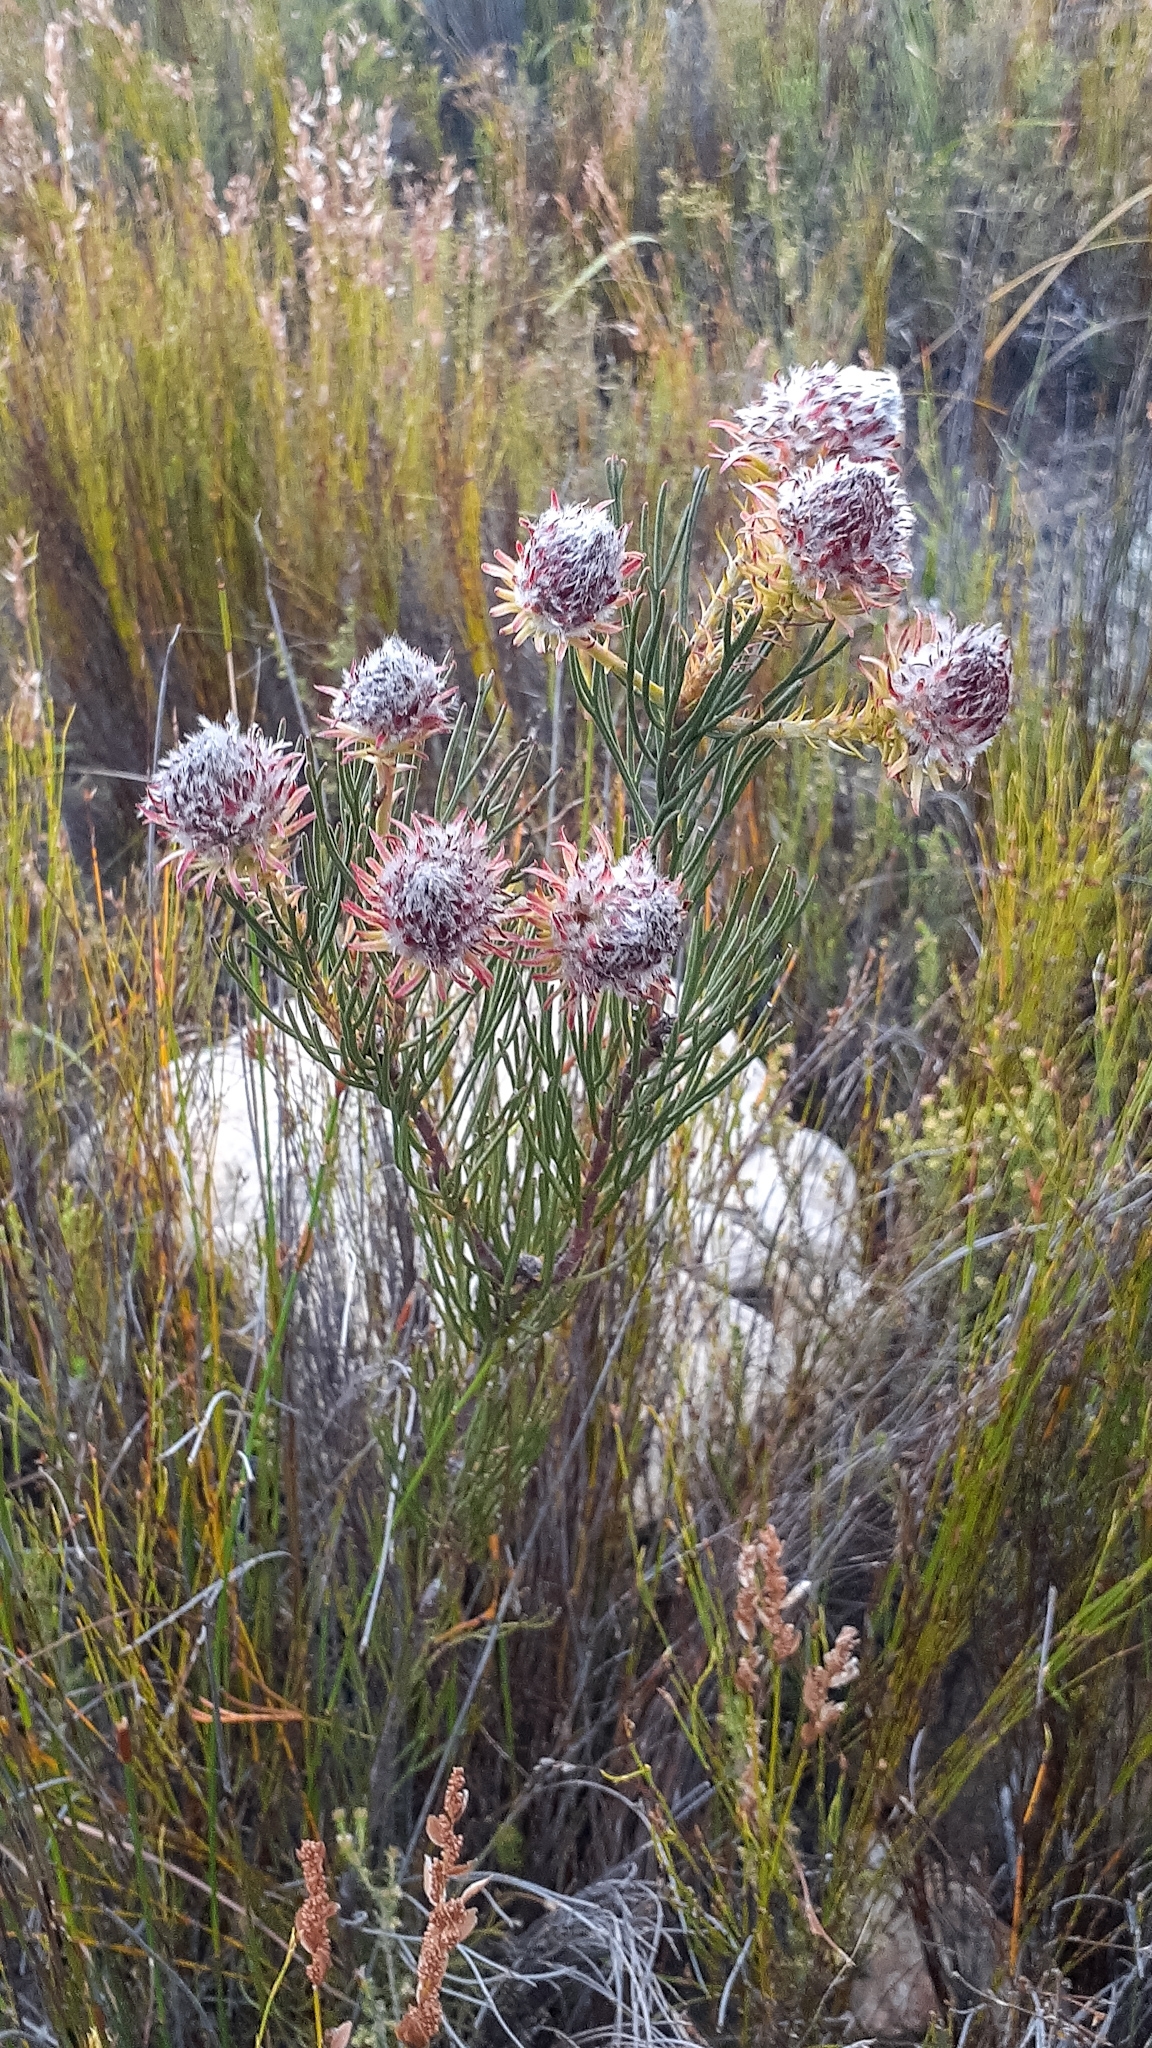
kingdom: Plantae
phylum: Tracheophyta
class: Magnoliopsida
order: Proteales
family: Proteaceae
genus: Serruria
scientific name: Serruria phylicoides
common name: Bearded spiderhead
